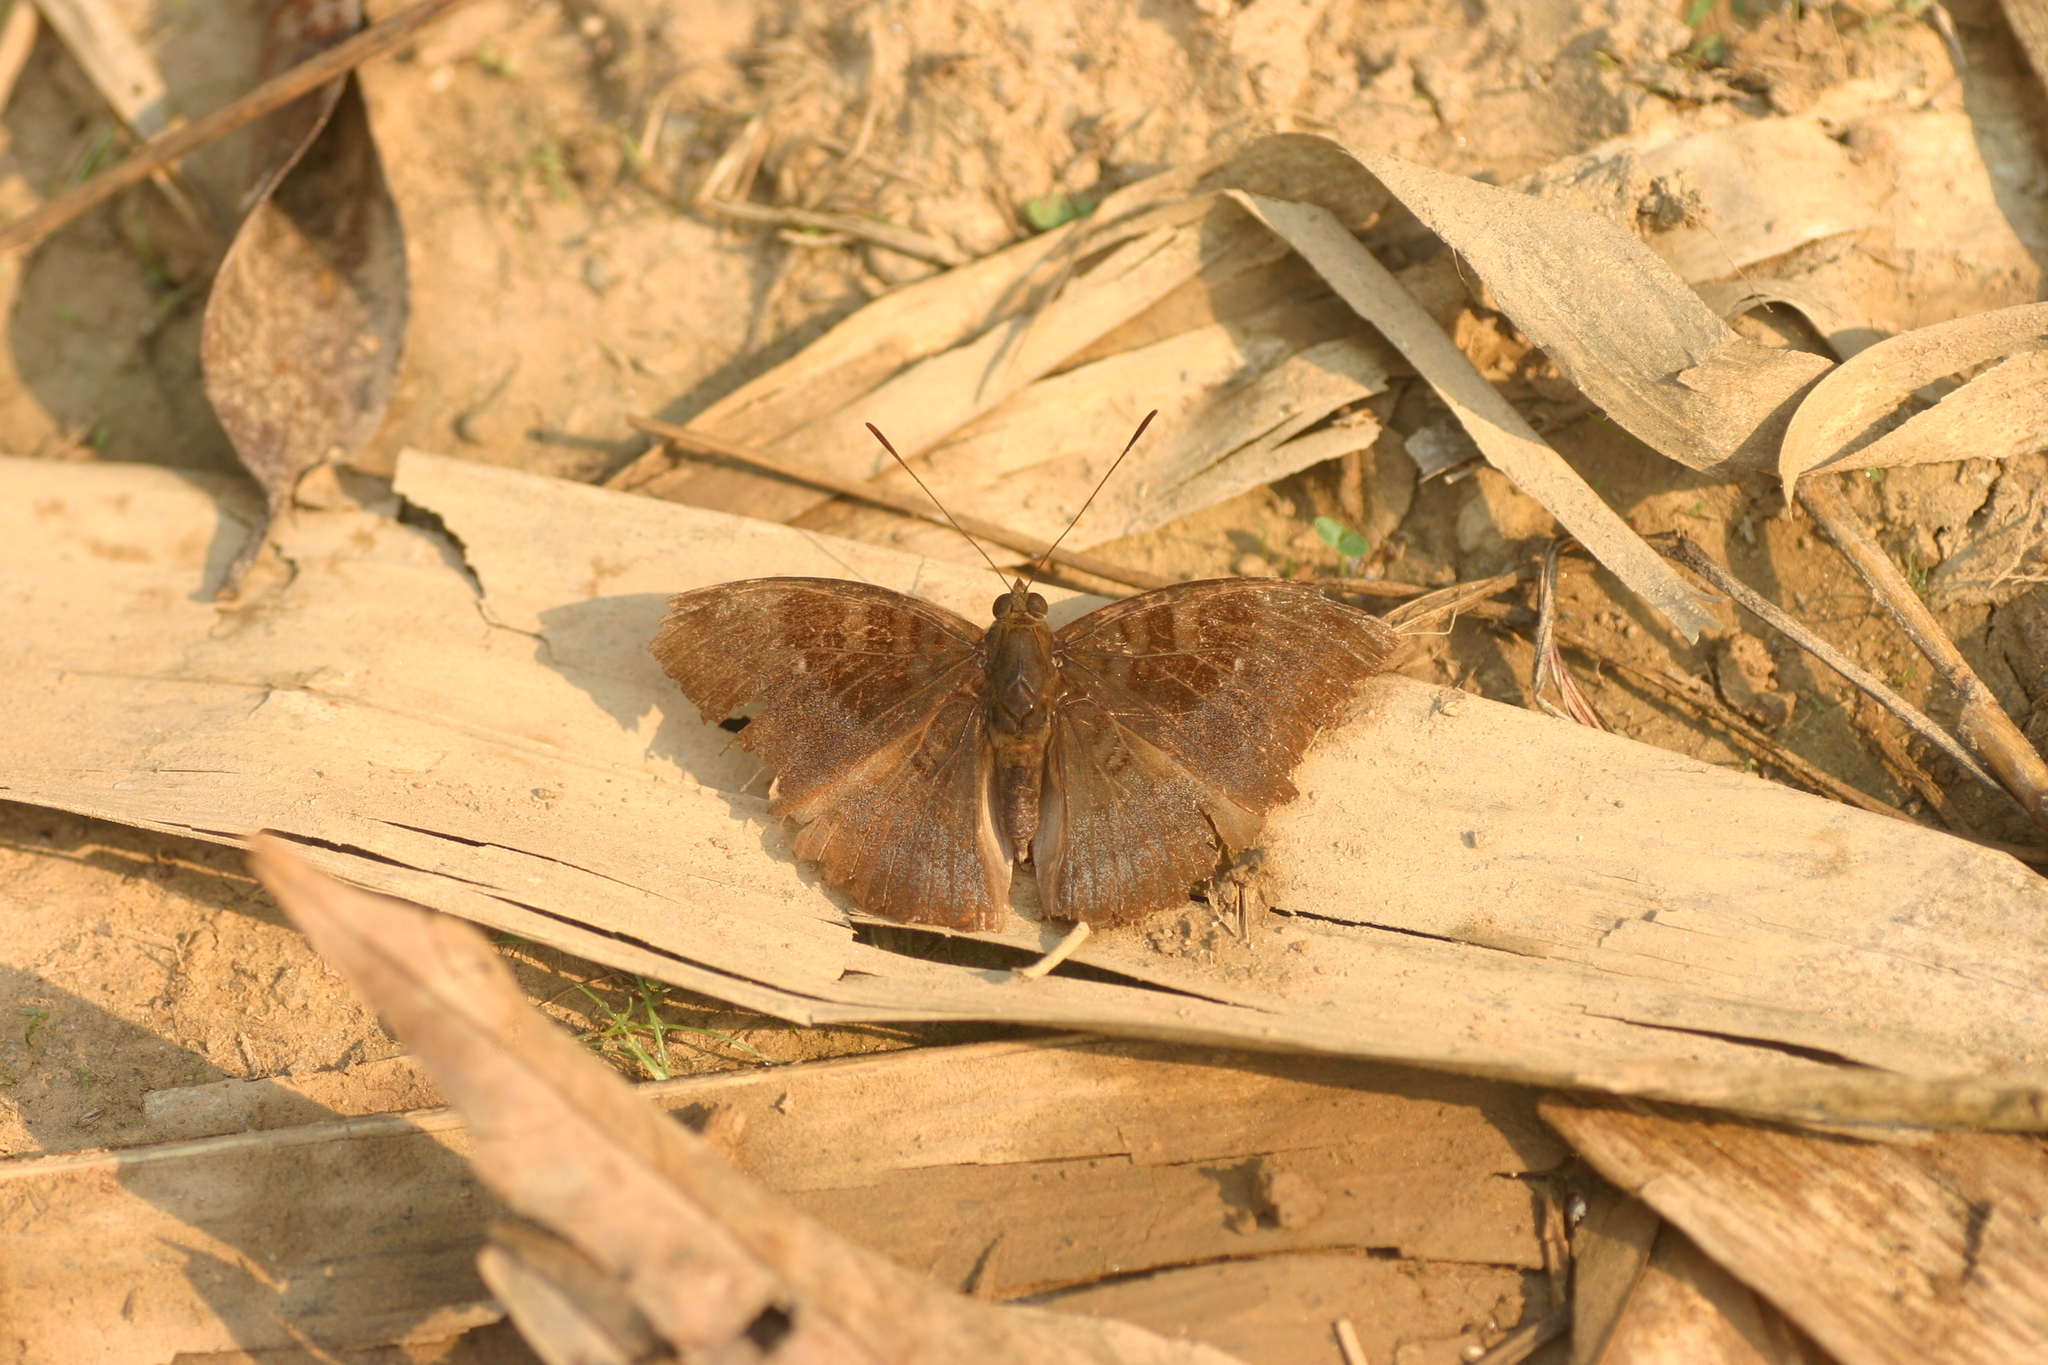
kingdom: Animalia
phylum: Arthropoda
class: Insecta
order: Lepidoptera
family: Nymphalidae
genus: Euthalia
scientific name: Euthalia monina
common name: Powdered baron
